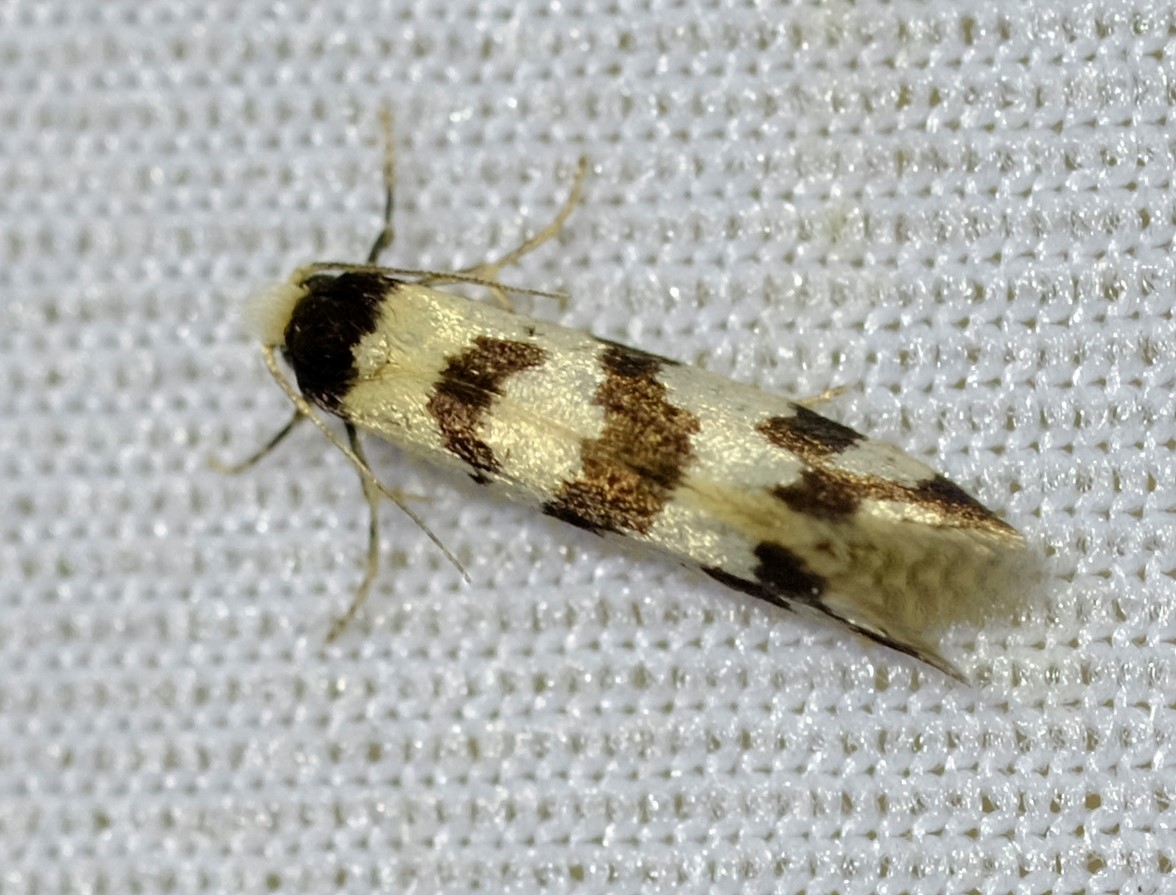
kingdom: Animalia
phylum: Arthropoda
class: Insecta
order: Lepidoptera
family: Psychidae
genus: Lepidoscia
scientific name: Lepidoscia characota
